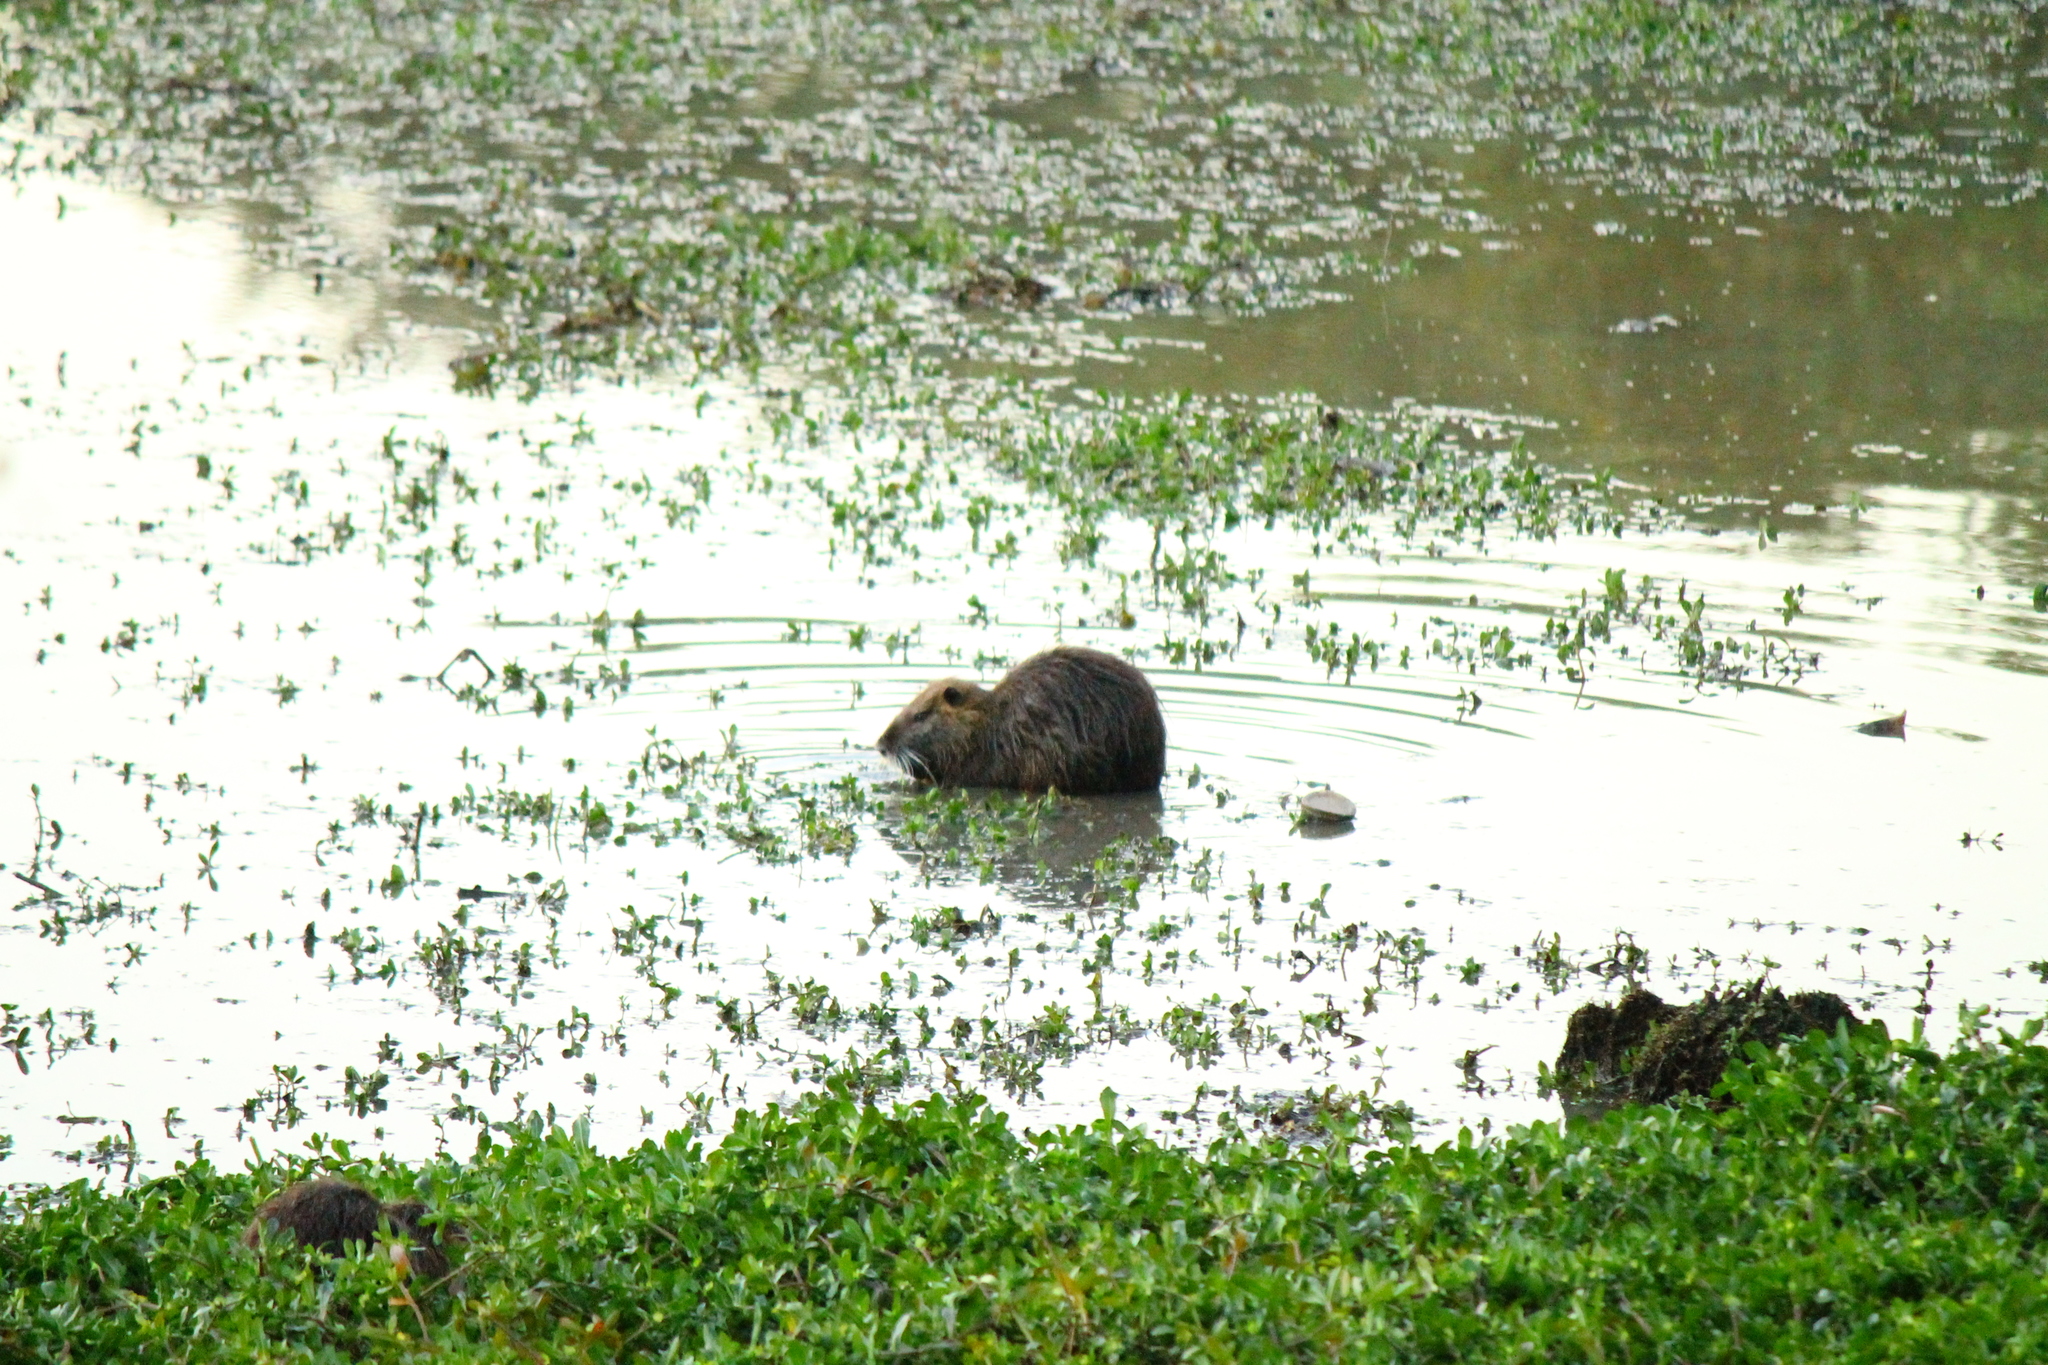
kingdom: Animalia
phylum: Chordata
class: Mammalia
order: Rodentia
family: Myocastoridae
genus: Myocastor
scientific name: Myocastor coypus
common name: Coypu
